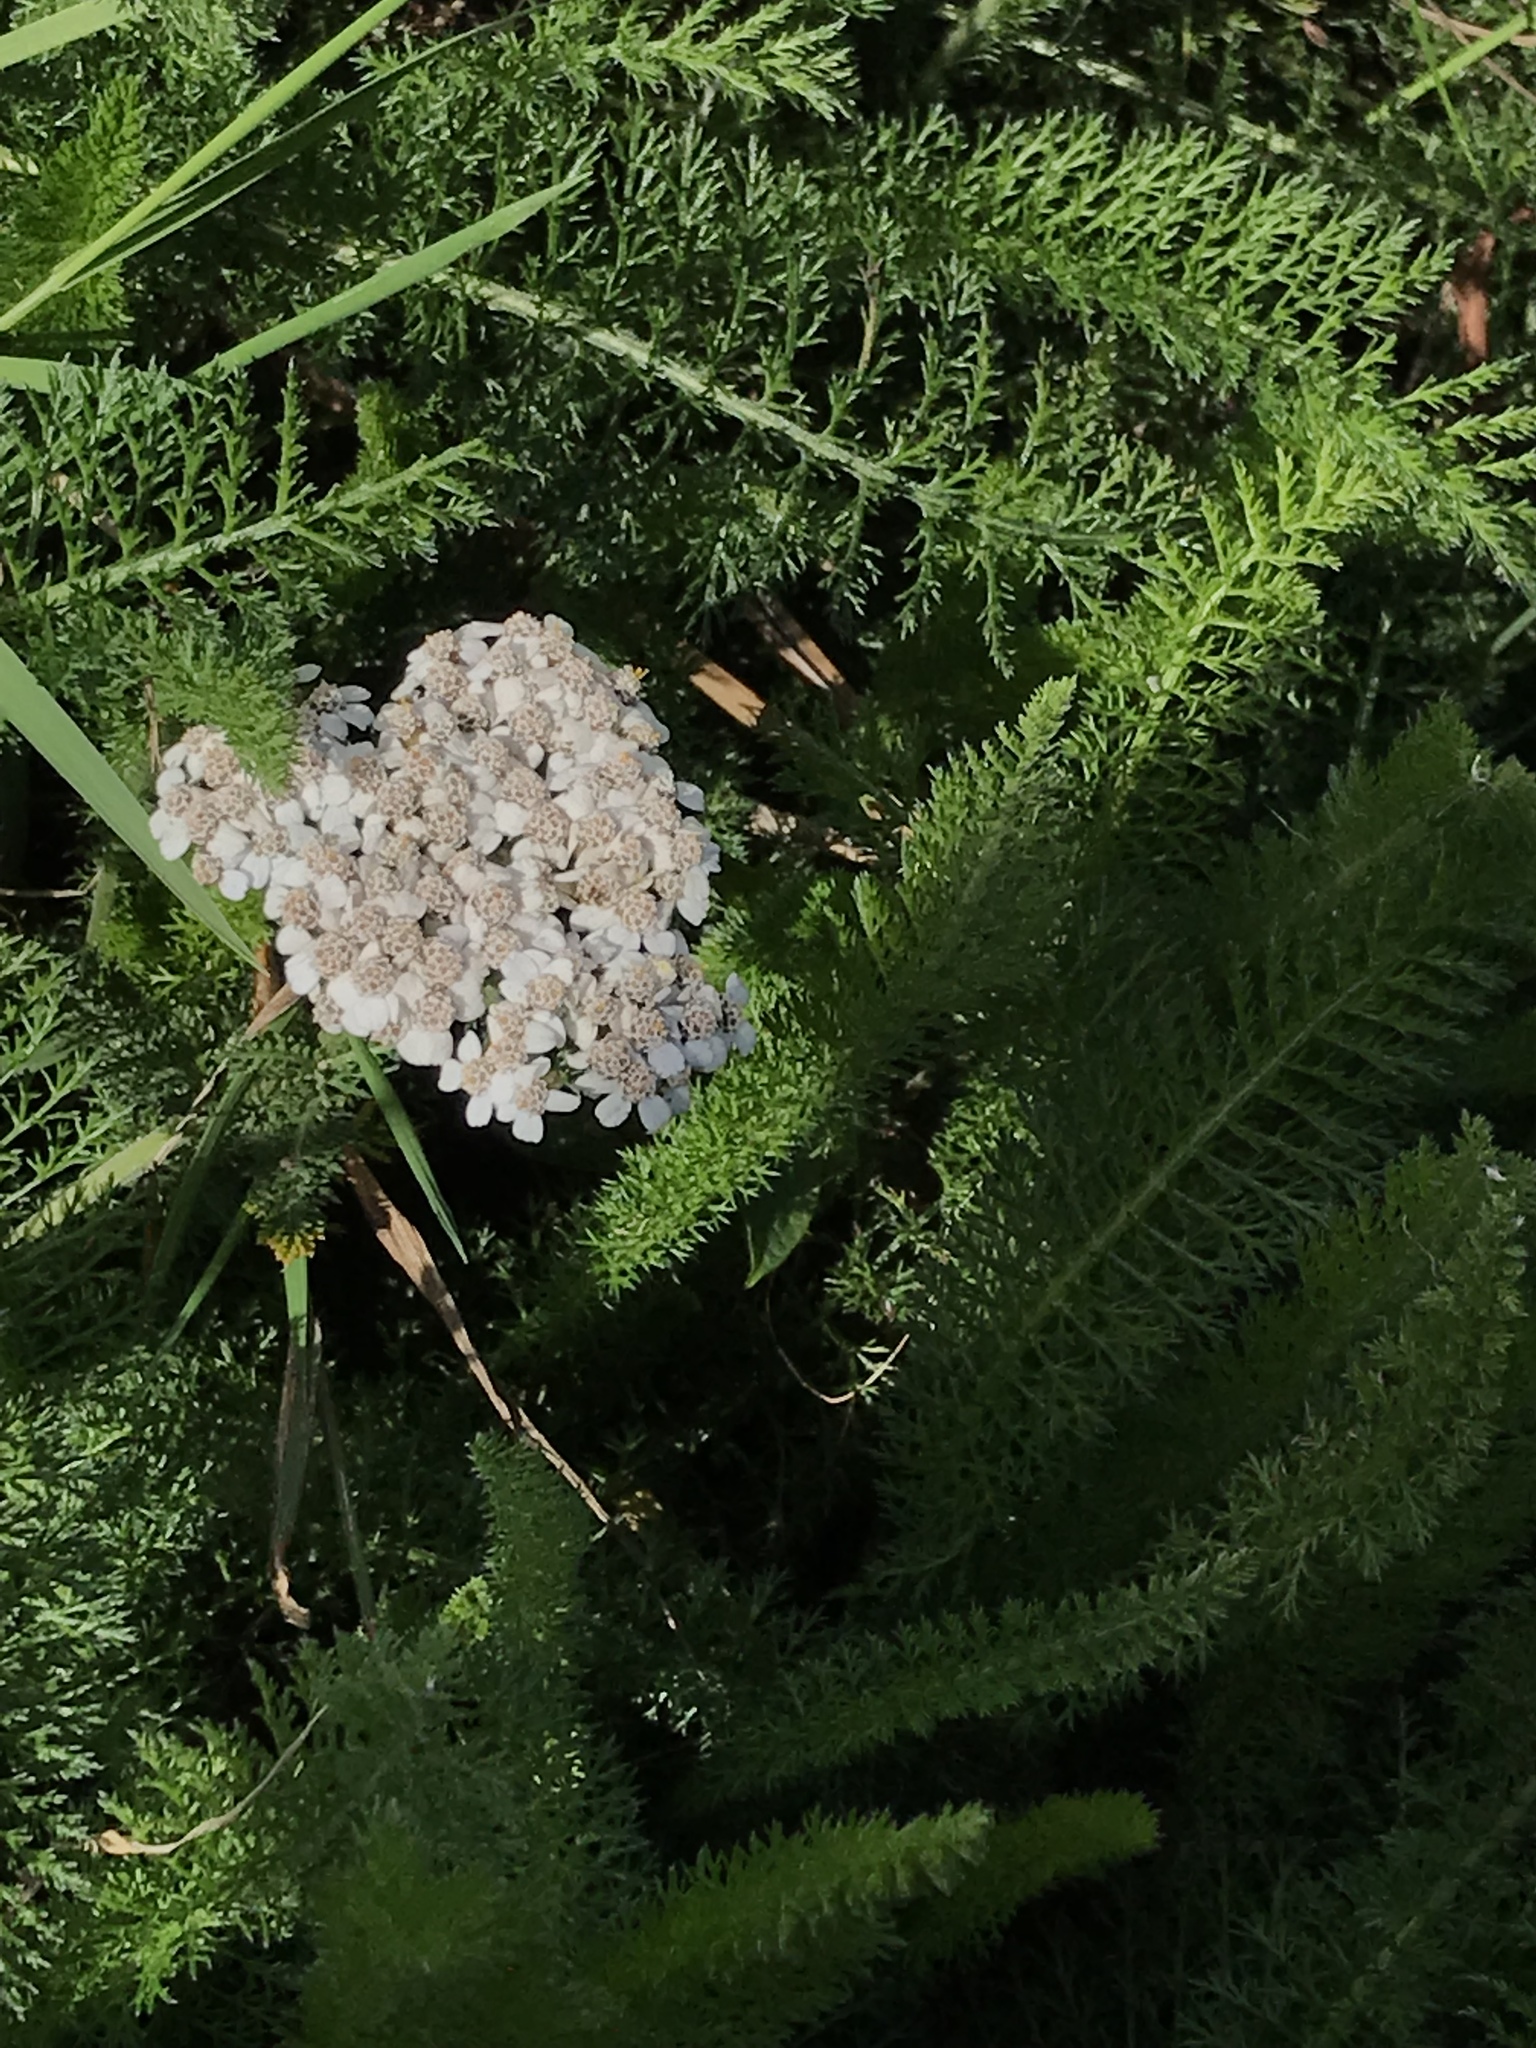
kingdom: Plantae
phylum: Tracheophyta
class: Magnoliopsida
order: Asterales
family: Asteraceae
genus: Achillea
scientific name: Achillea millefolium
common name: Yarrow
